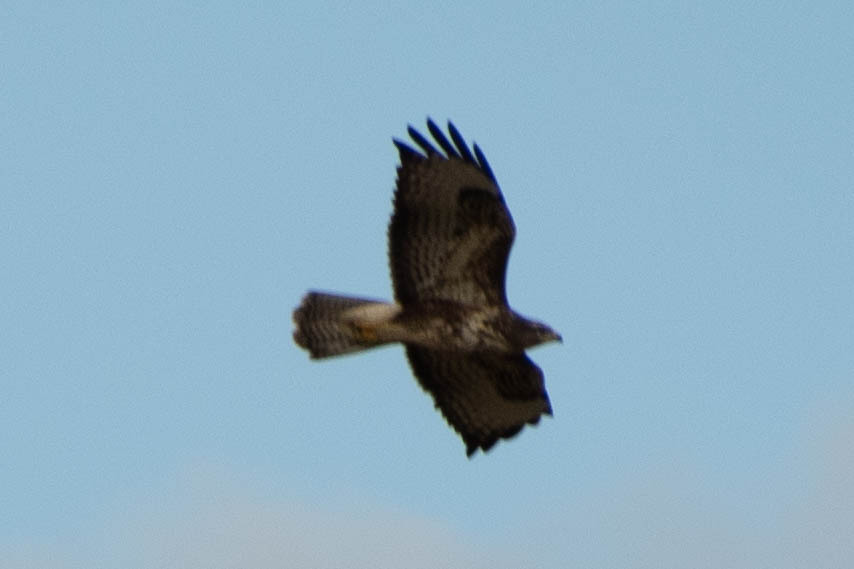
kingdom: Animalia
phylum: Chordata
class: Aves
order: Accipitriformes
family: Accipitridae
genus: Buteo
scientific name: Buteo buteo
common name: Common buzzard
